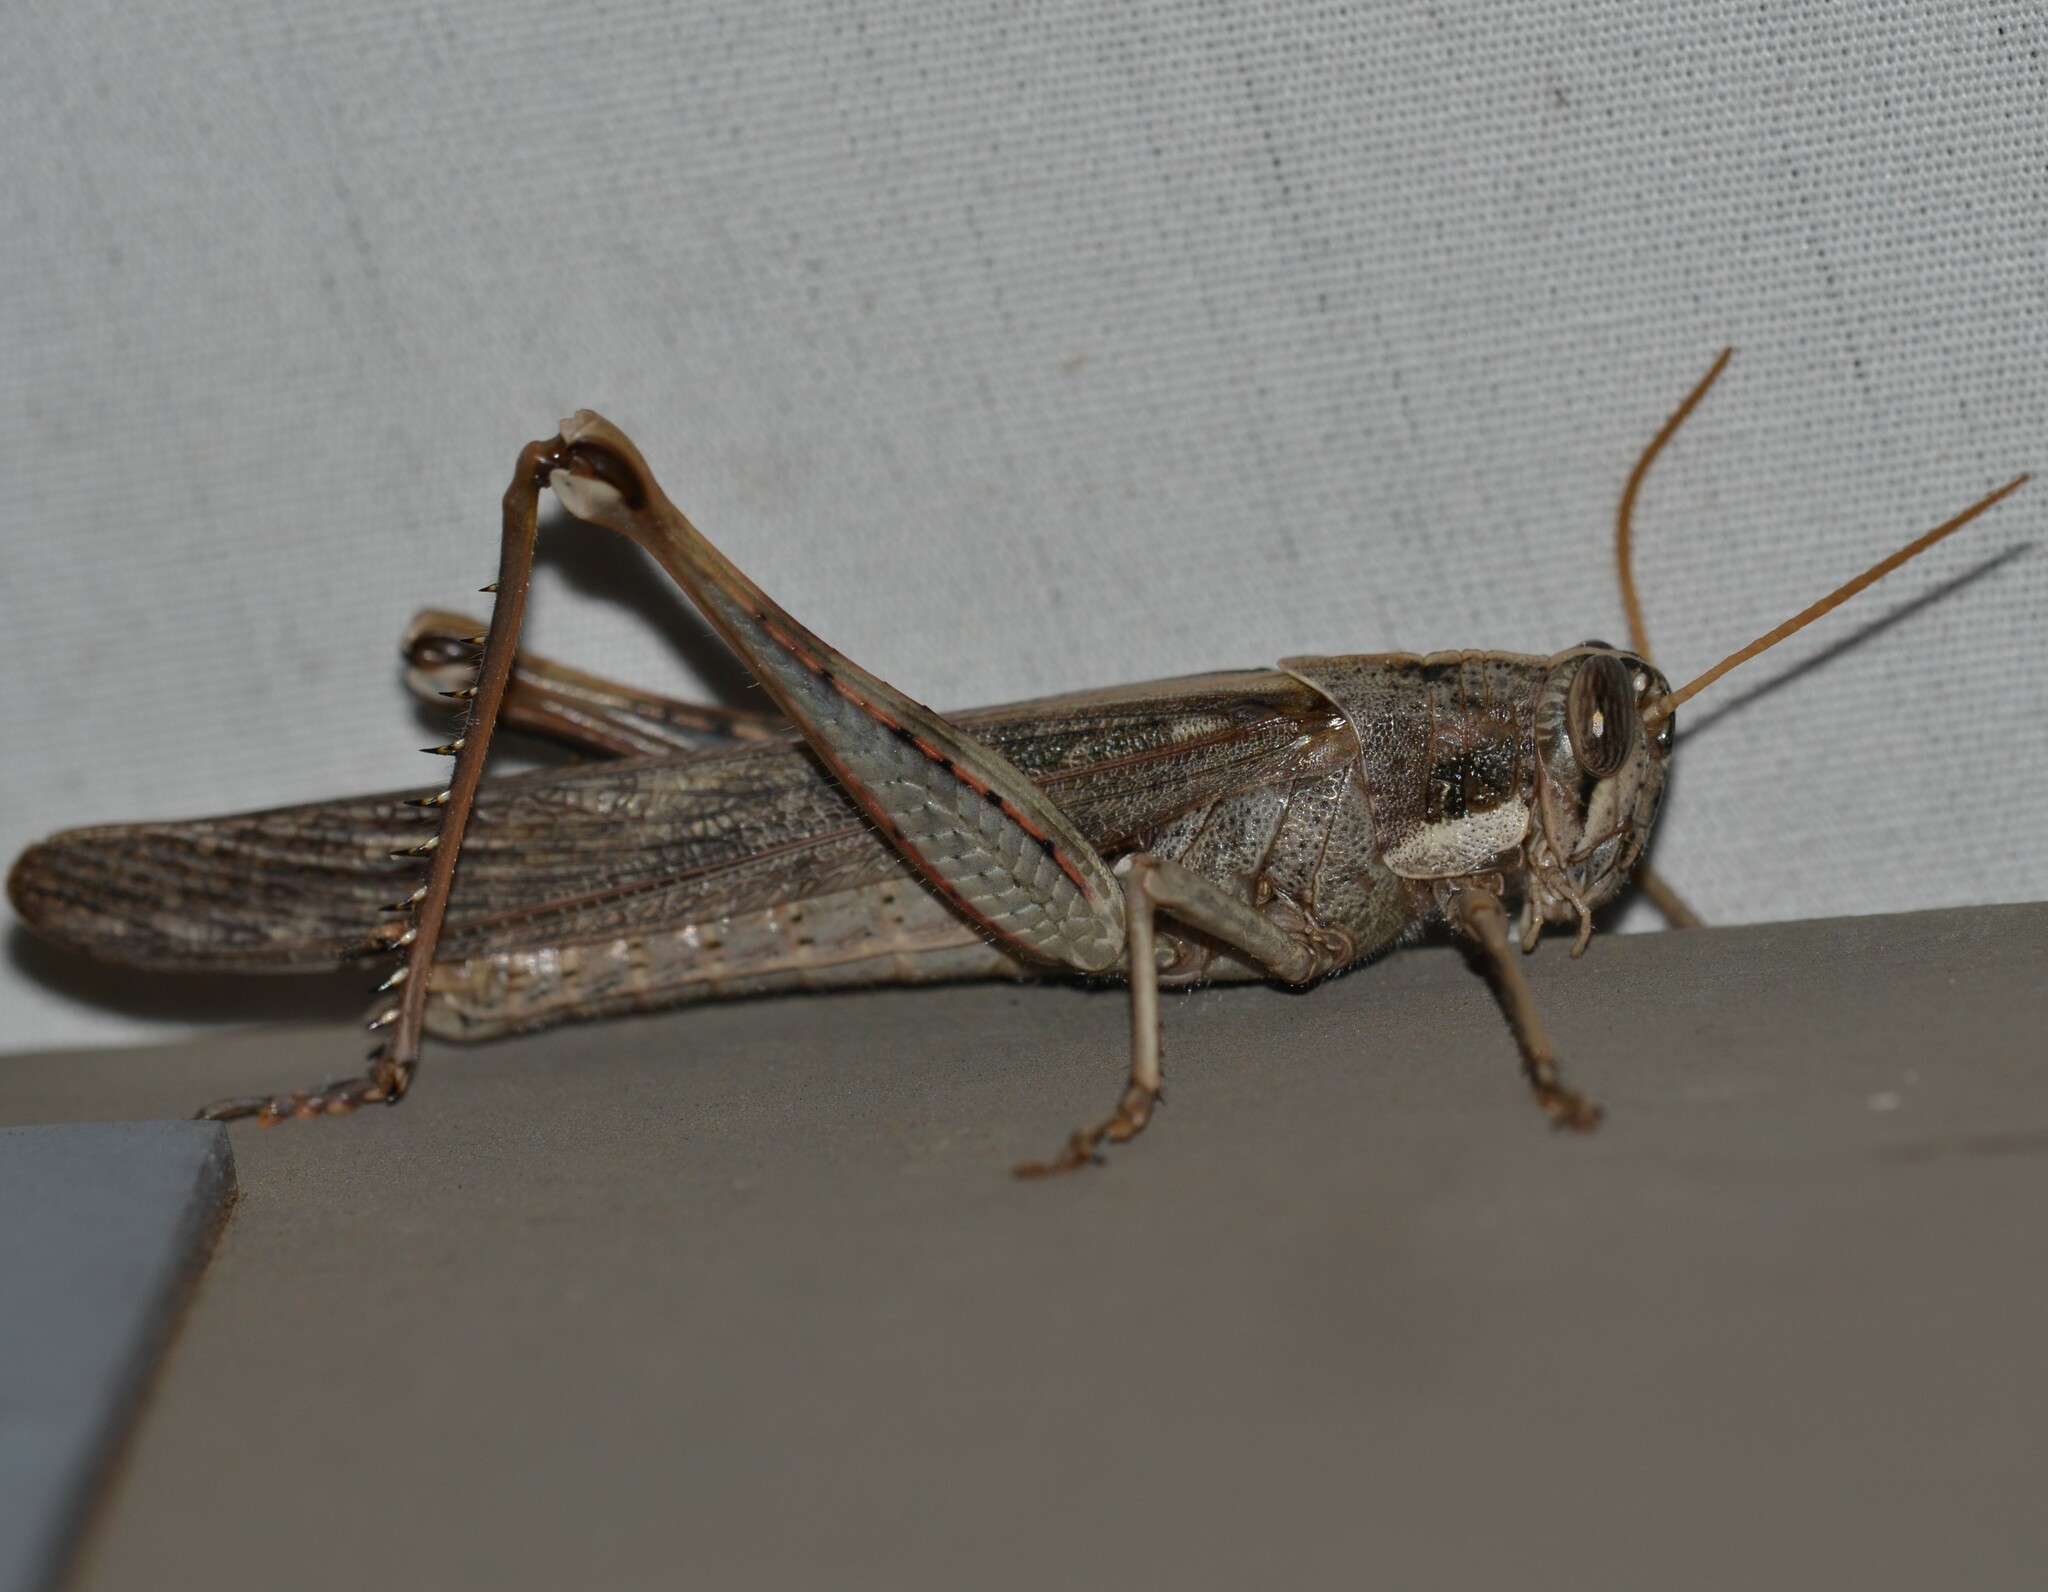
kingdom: Animalia
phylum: Arthropoda
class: Insecta
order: Orthoptera
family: Acrididae
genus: Schistocerca
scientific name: Schistocerca nitens
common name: Vagrant grasshopper
